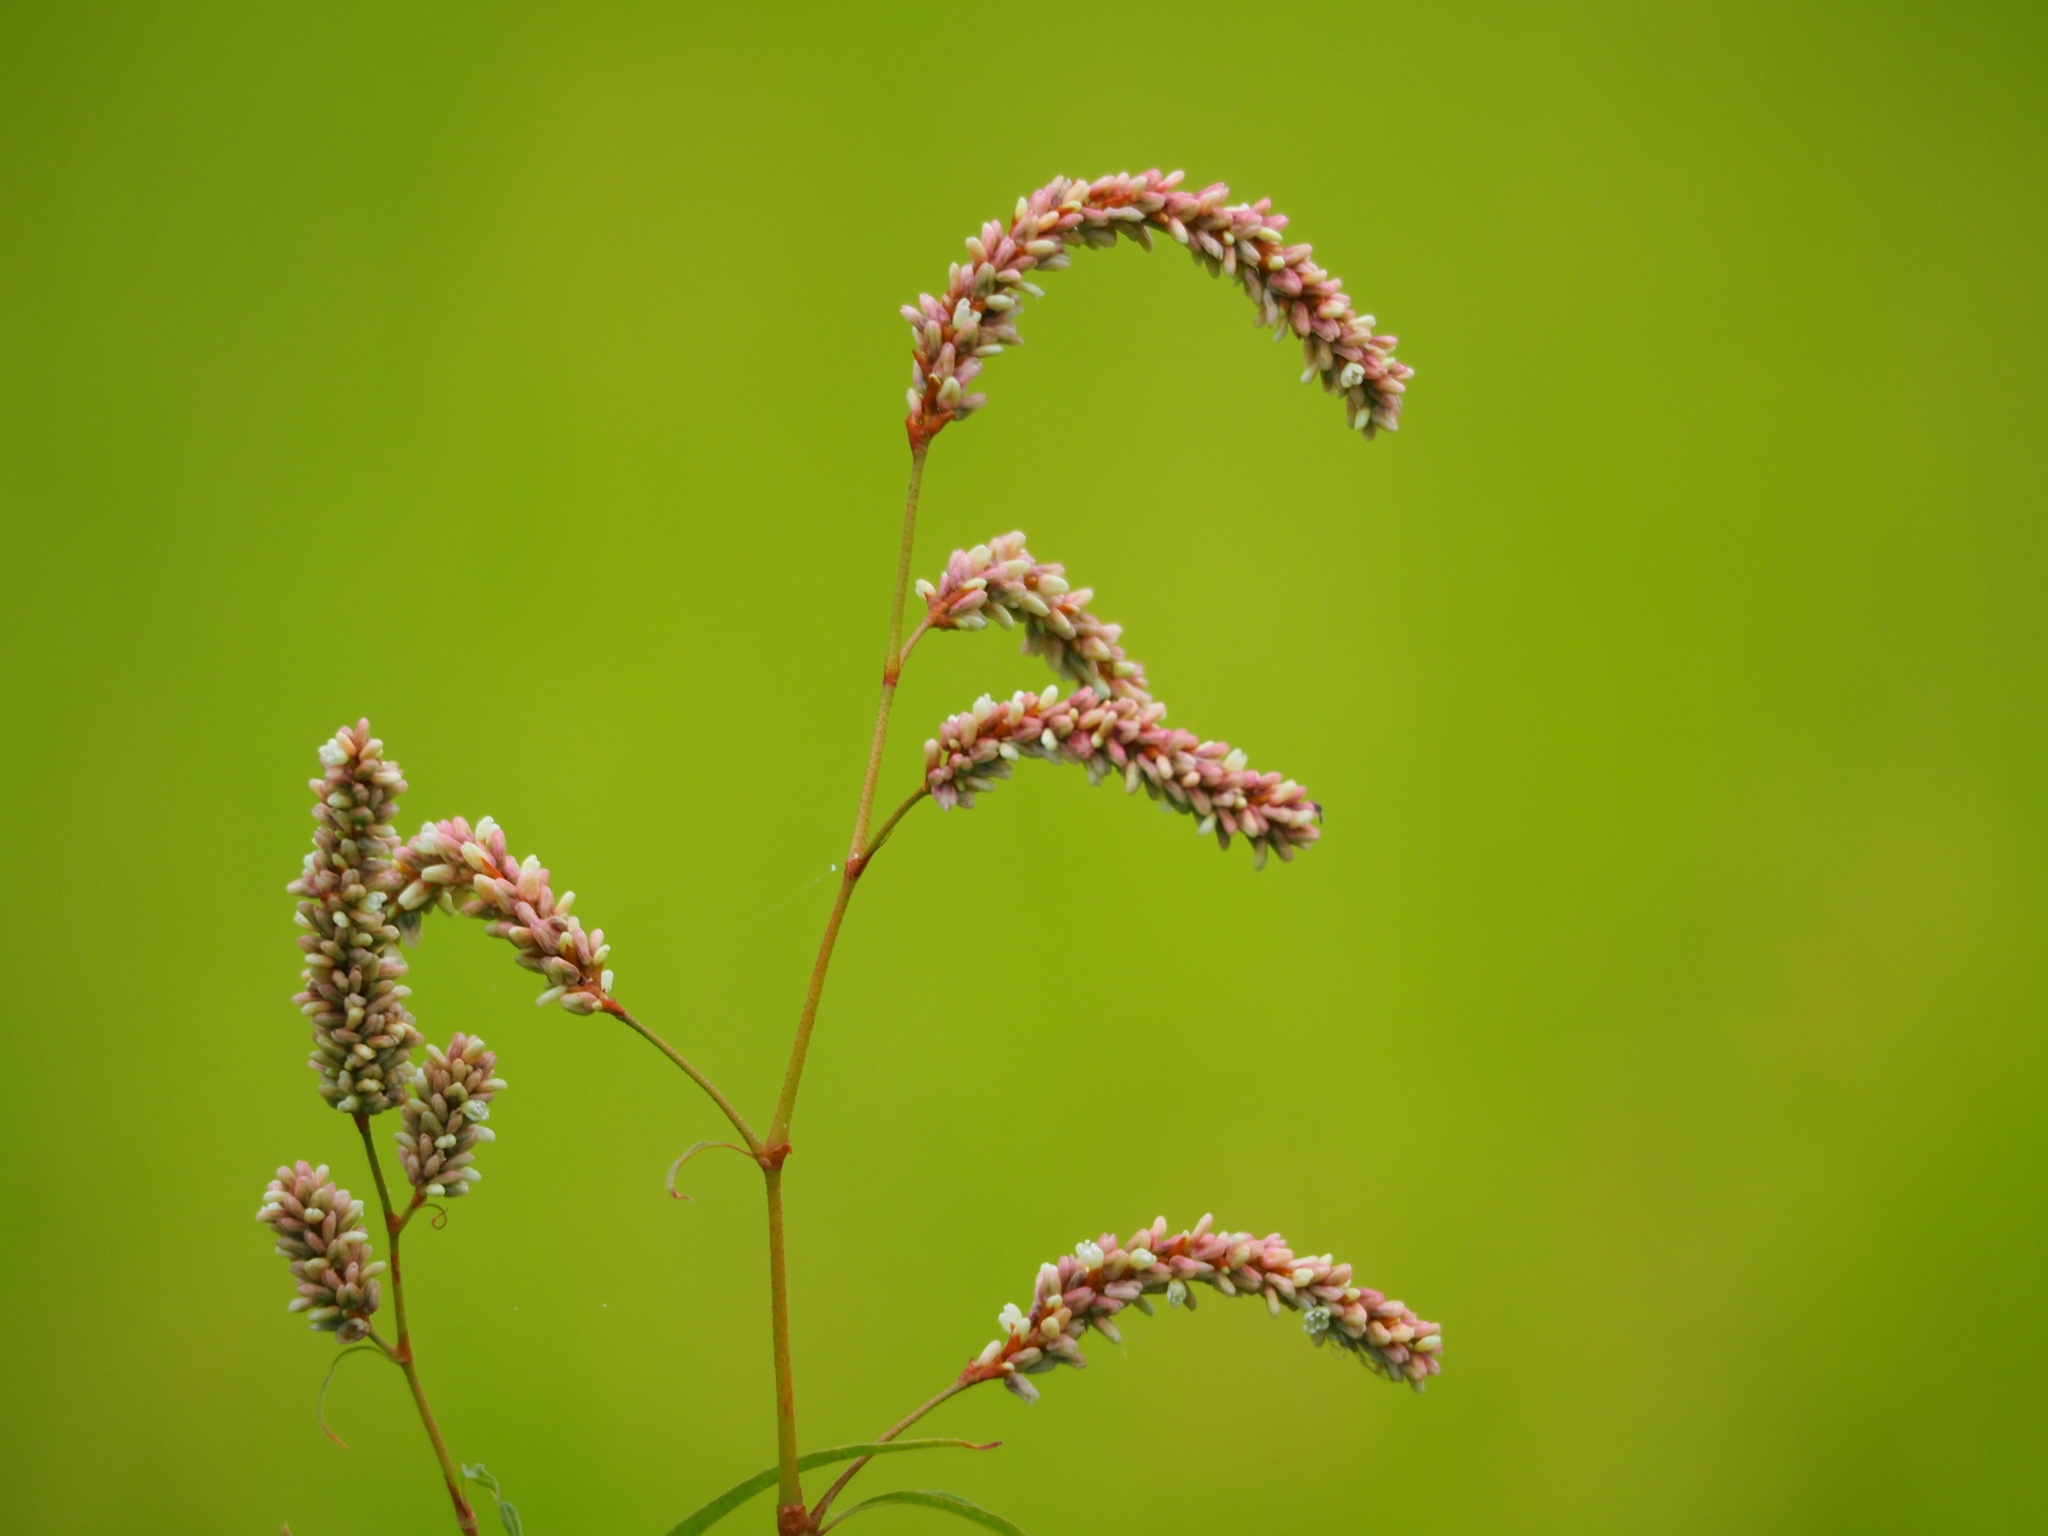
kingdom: Plantae
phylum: Tracheophyta
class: Magnoliopsida
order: Caryophyllales
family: Polygonaceae
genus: Persicaria
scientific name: Persicaria lapathifolia
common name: Curlytop knotweed
